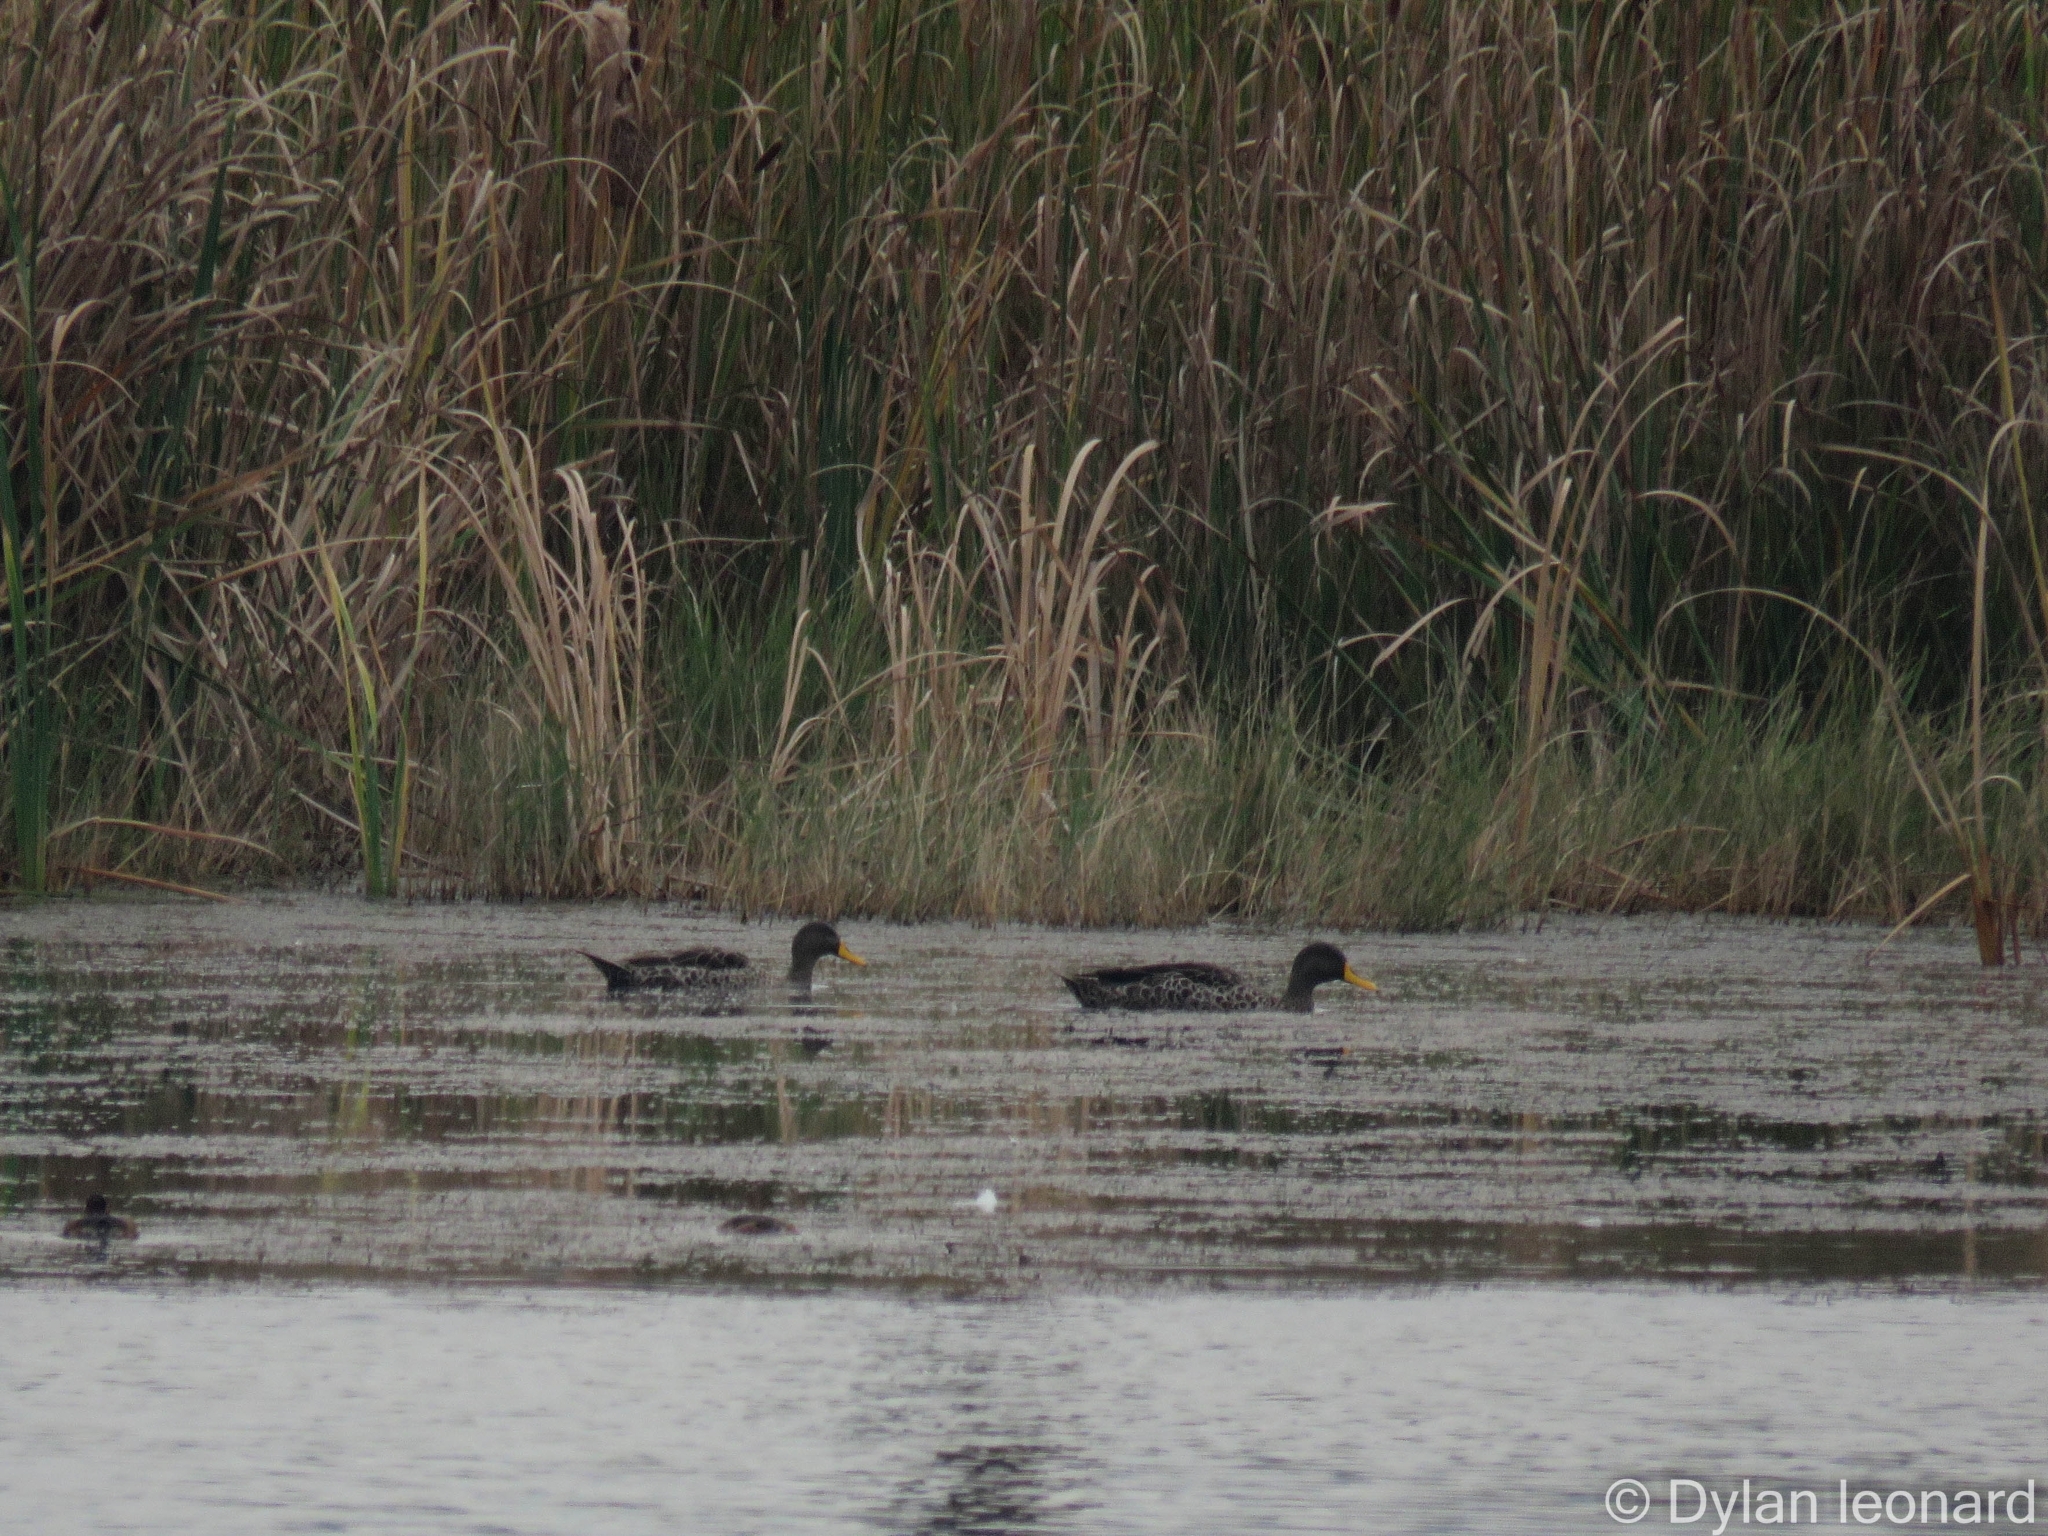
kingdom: Animalia
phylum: Chordata
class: Aves
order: Anseriformes
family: Anatidae
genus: Anas
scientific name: Anas undulata
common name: Yellow-billed duck
